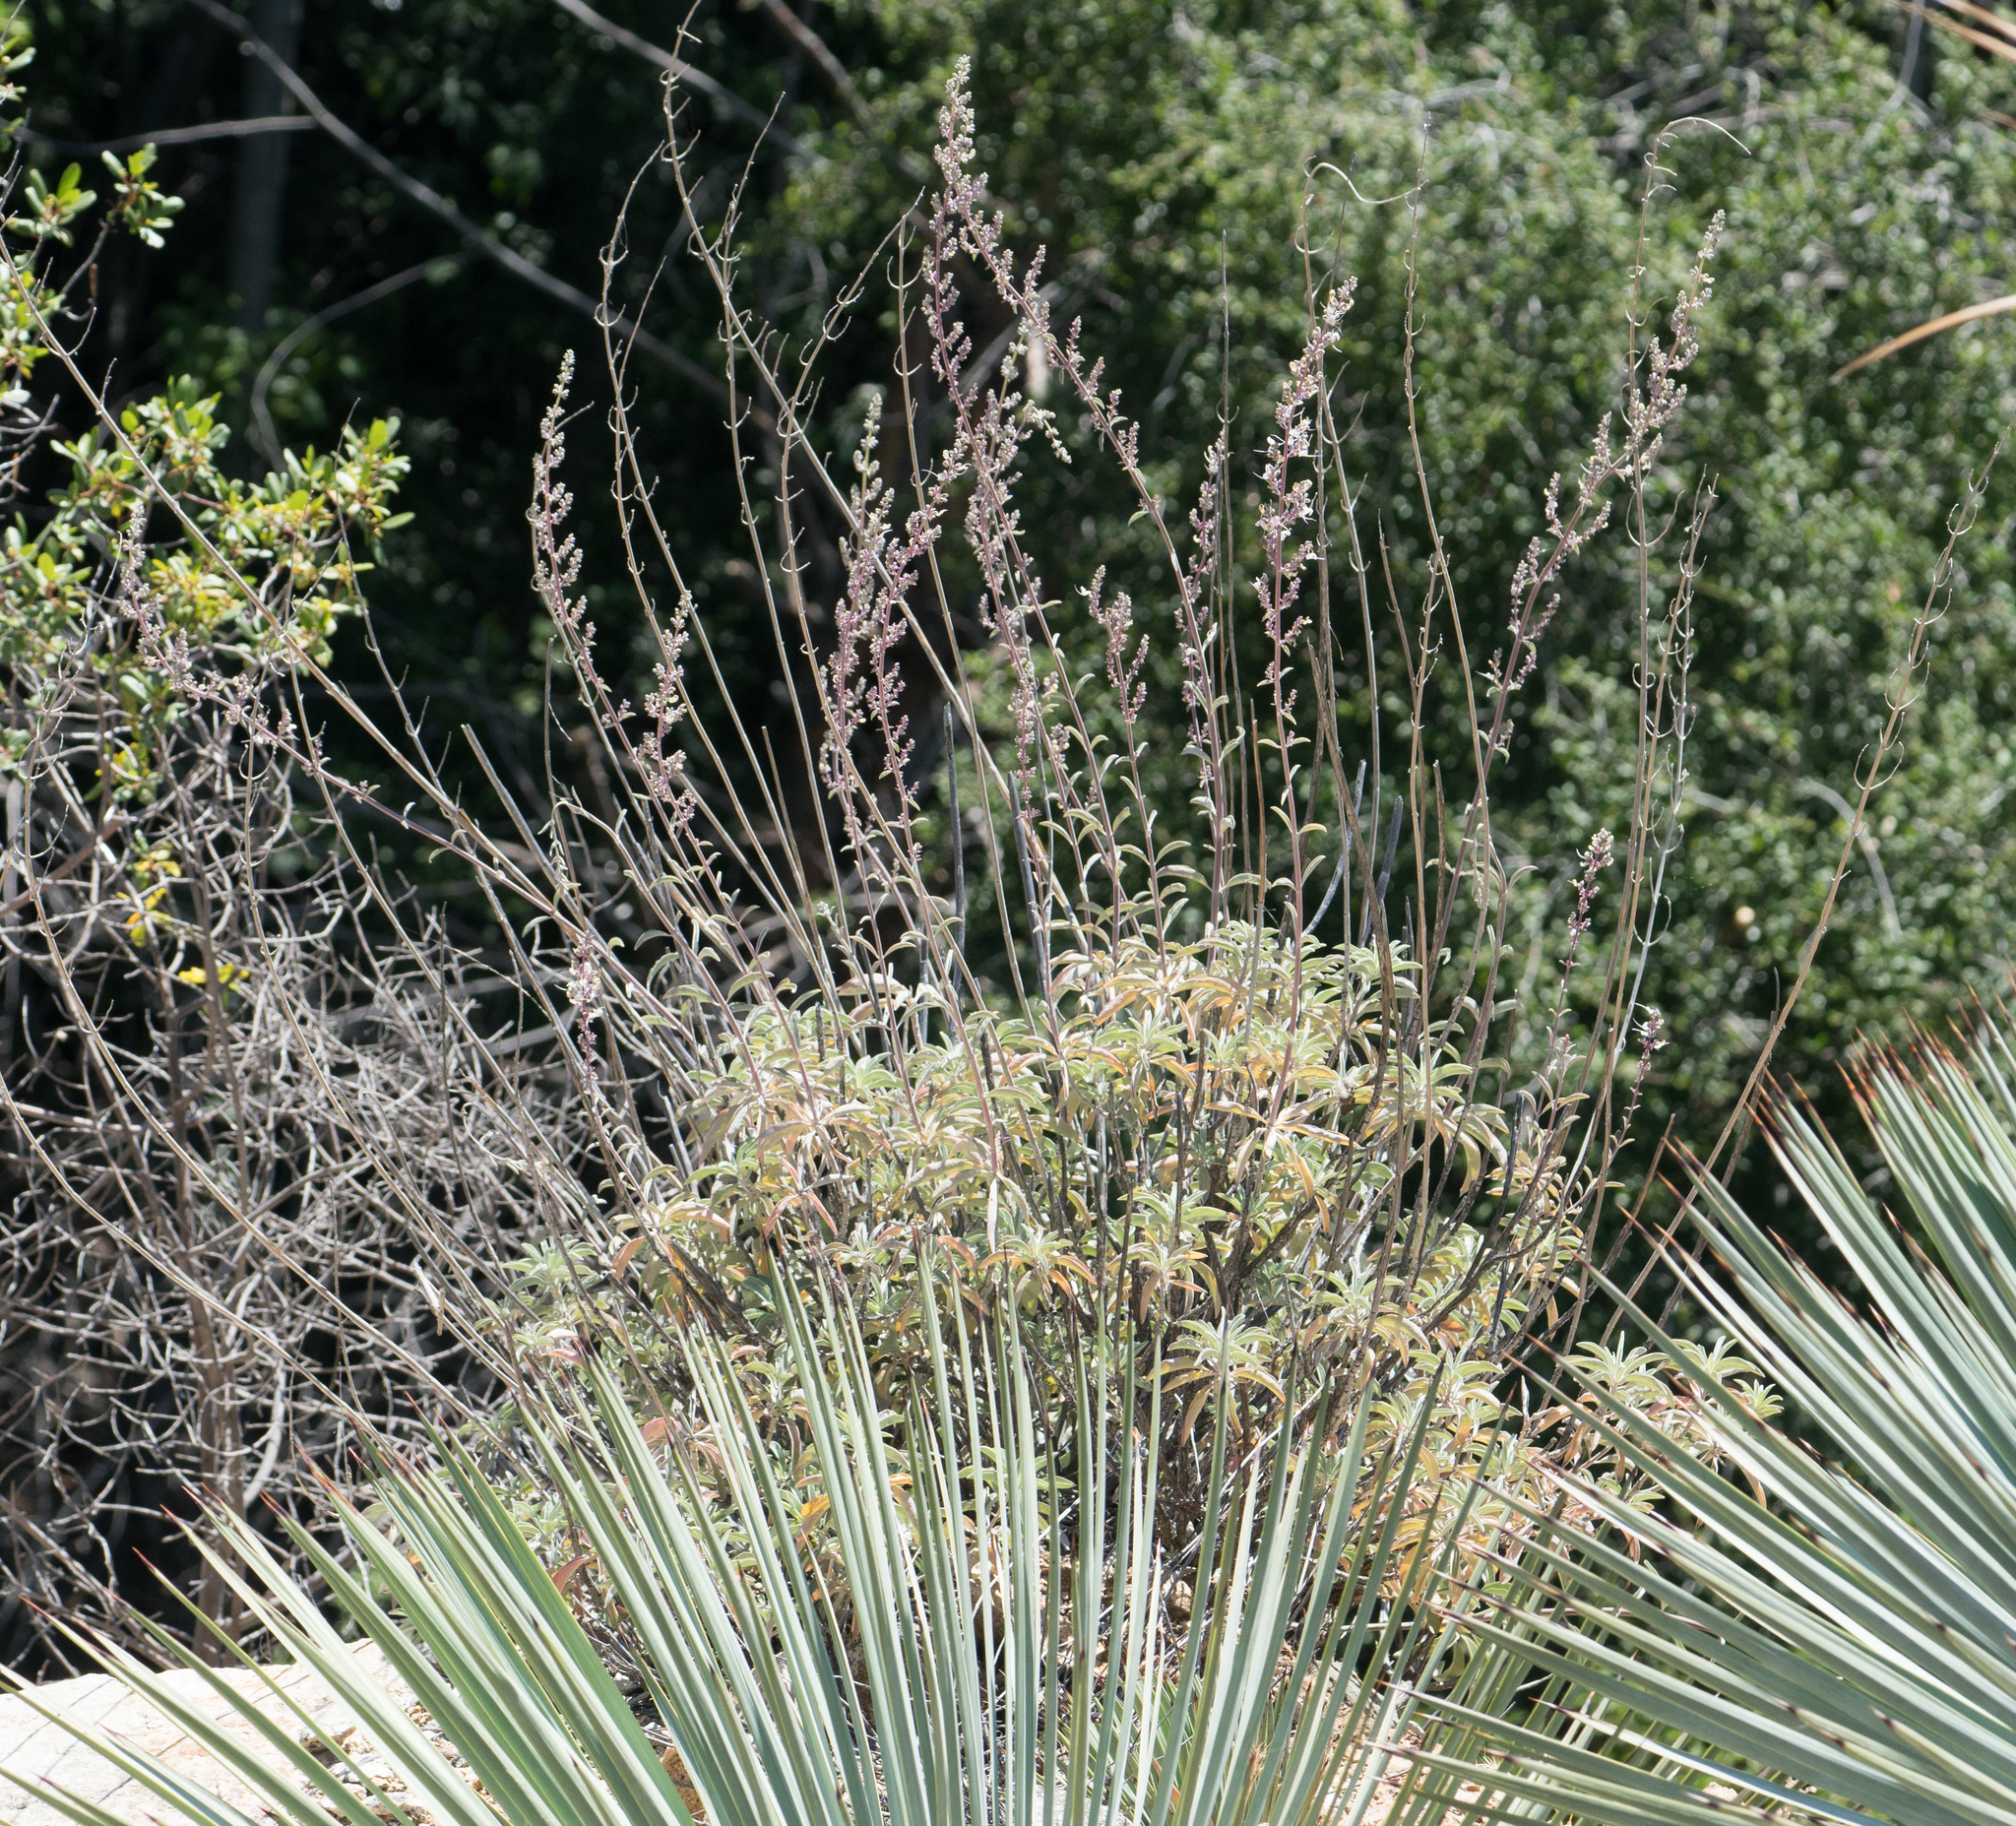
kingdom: Plantae
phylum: Tracheophyta
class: Magnoliopsida
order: Lamiales
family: Lamiaceae
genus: Salvia
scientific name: Salvia apiana
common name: White sage
